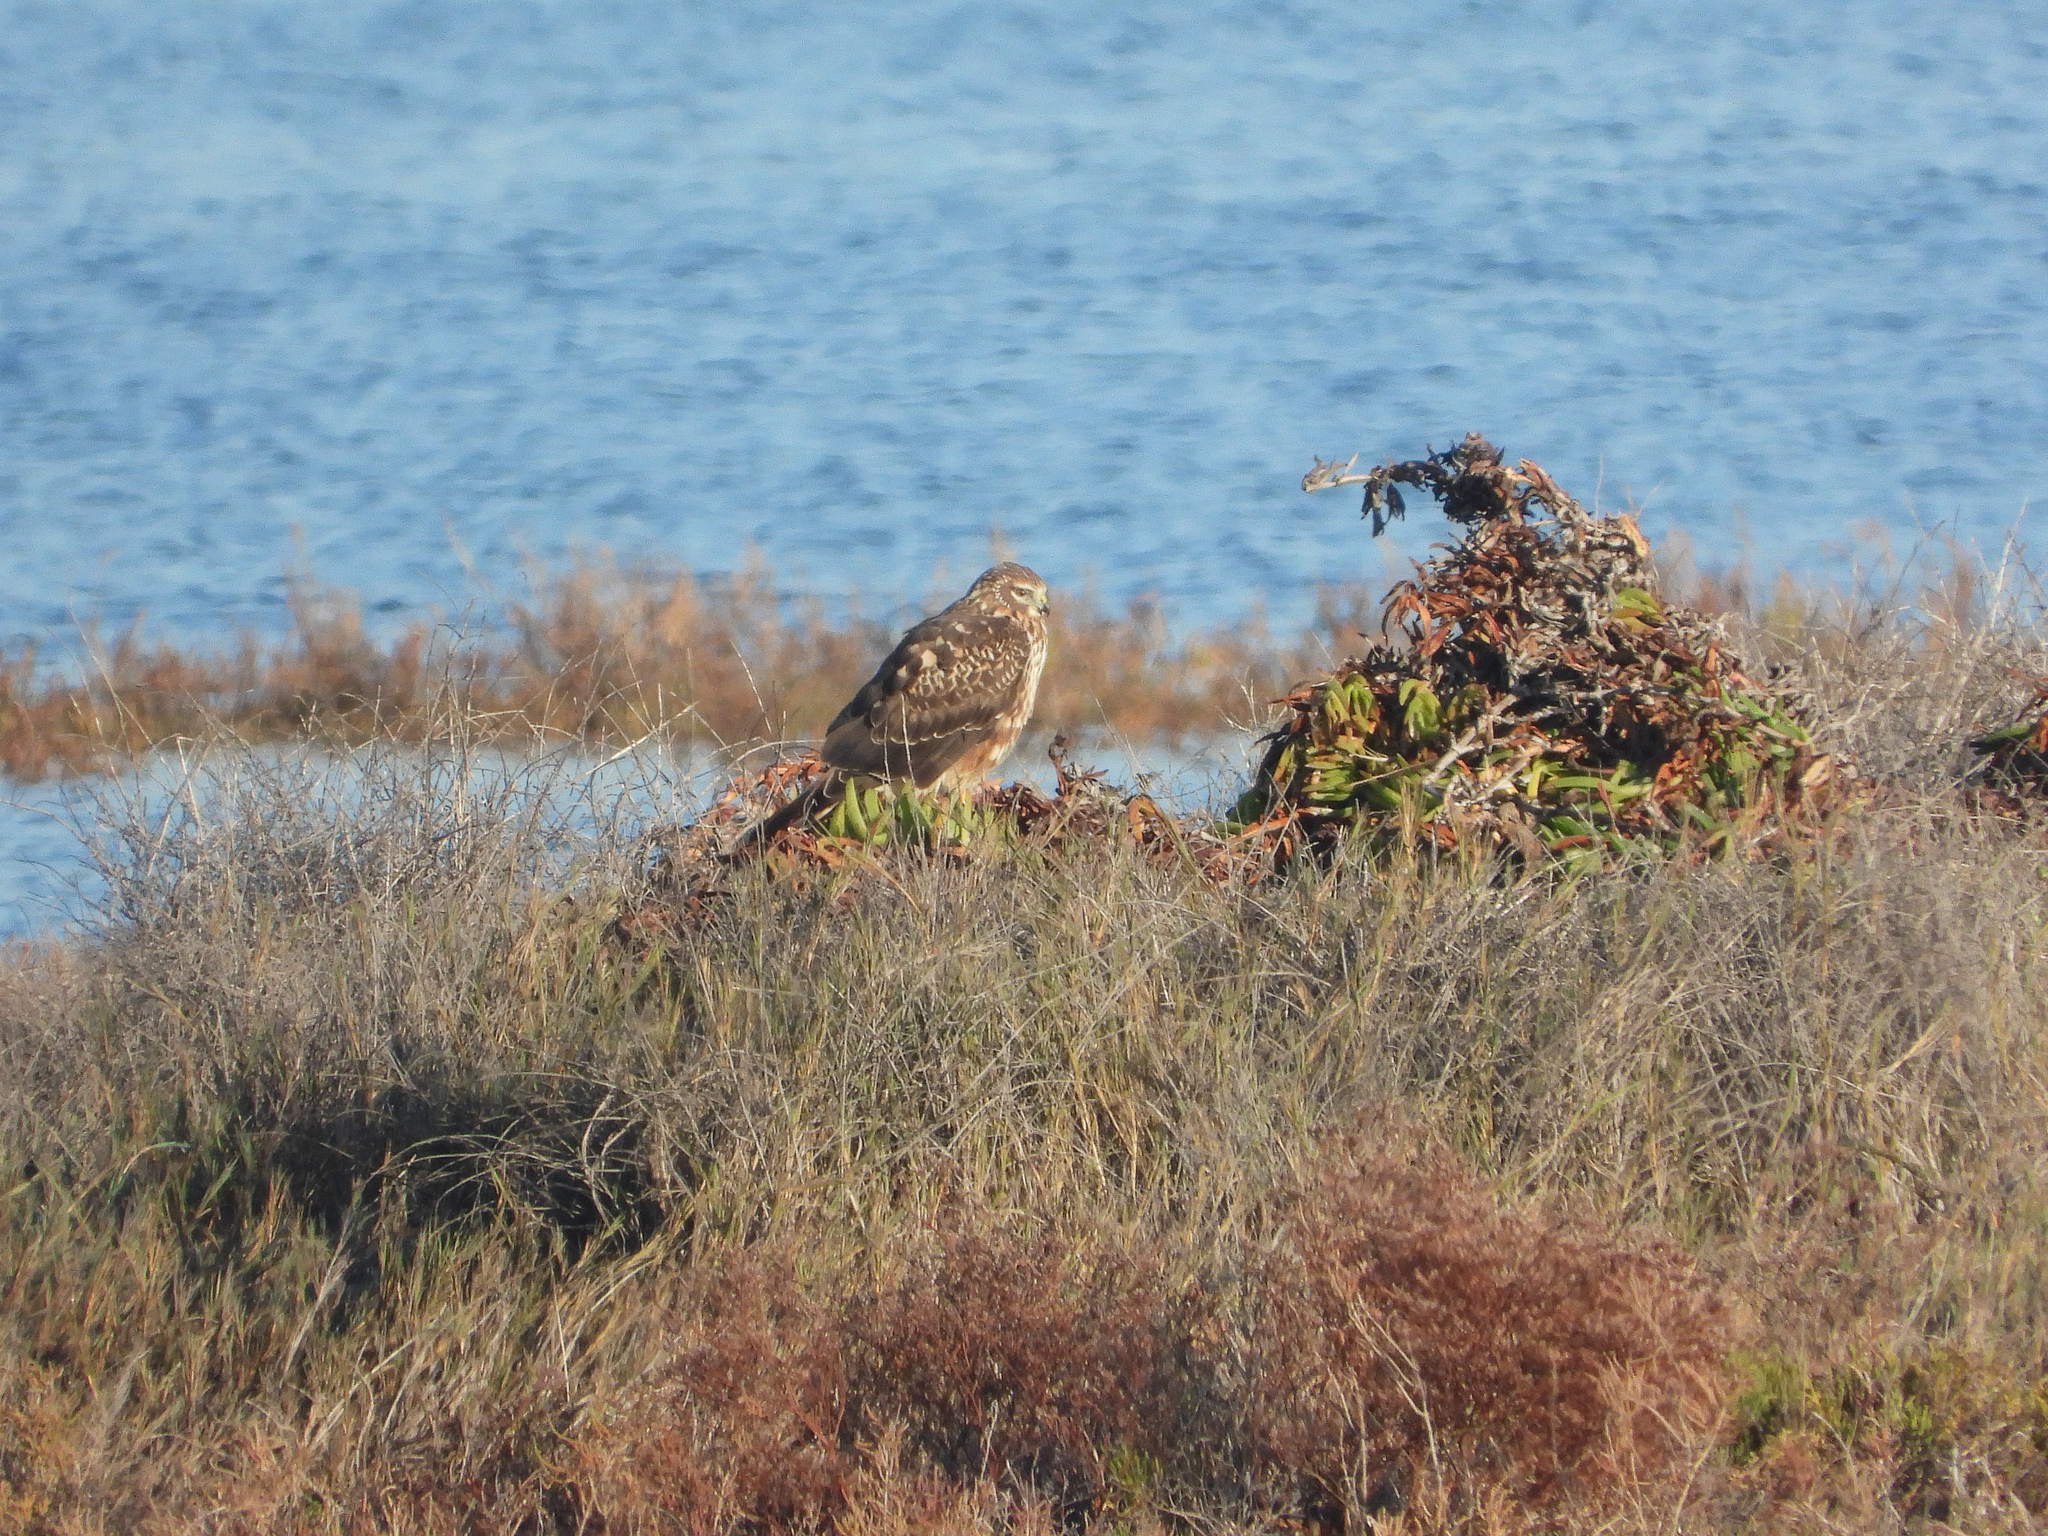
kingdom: Animalia
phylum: Chordata
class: Aves
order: Accipitriformes
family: Accipitridae
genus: Circus
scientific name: Circus cyaneus
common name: Hen harrier
